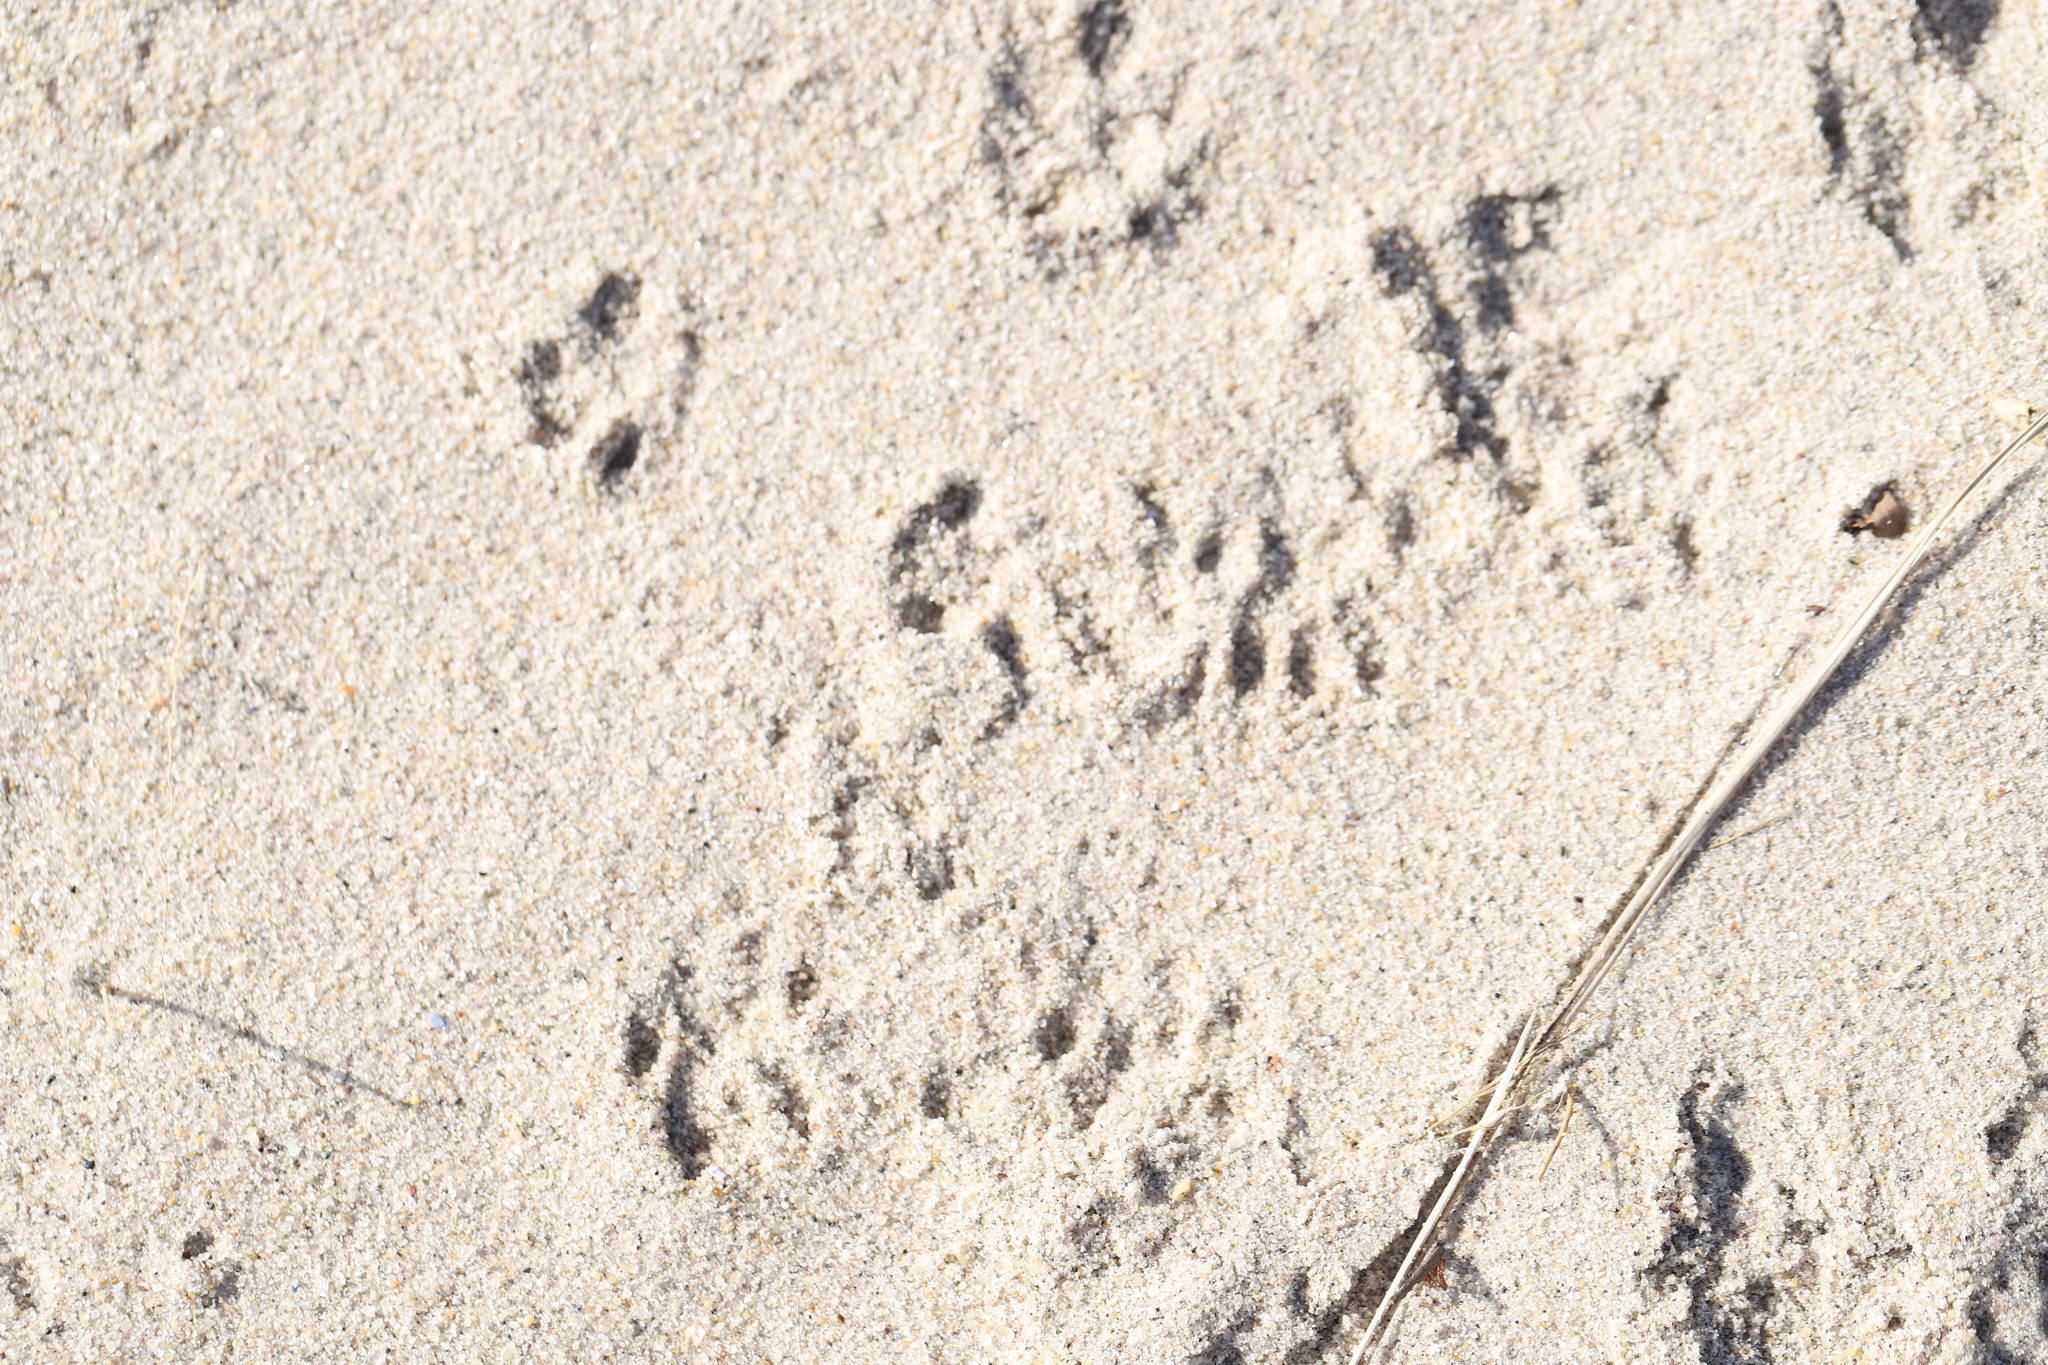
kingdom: Animalia
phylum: Chordata
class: Mammalia
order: Carnivora
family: Procyonidae
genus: Procyon
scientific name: Procyon lotor
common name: Raccoon
